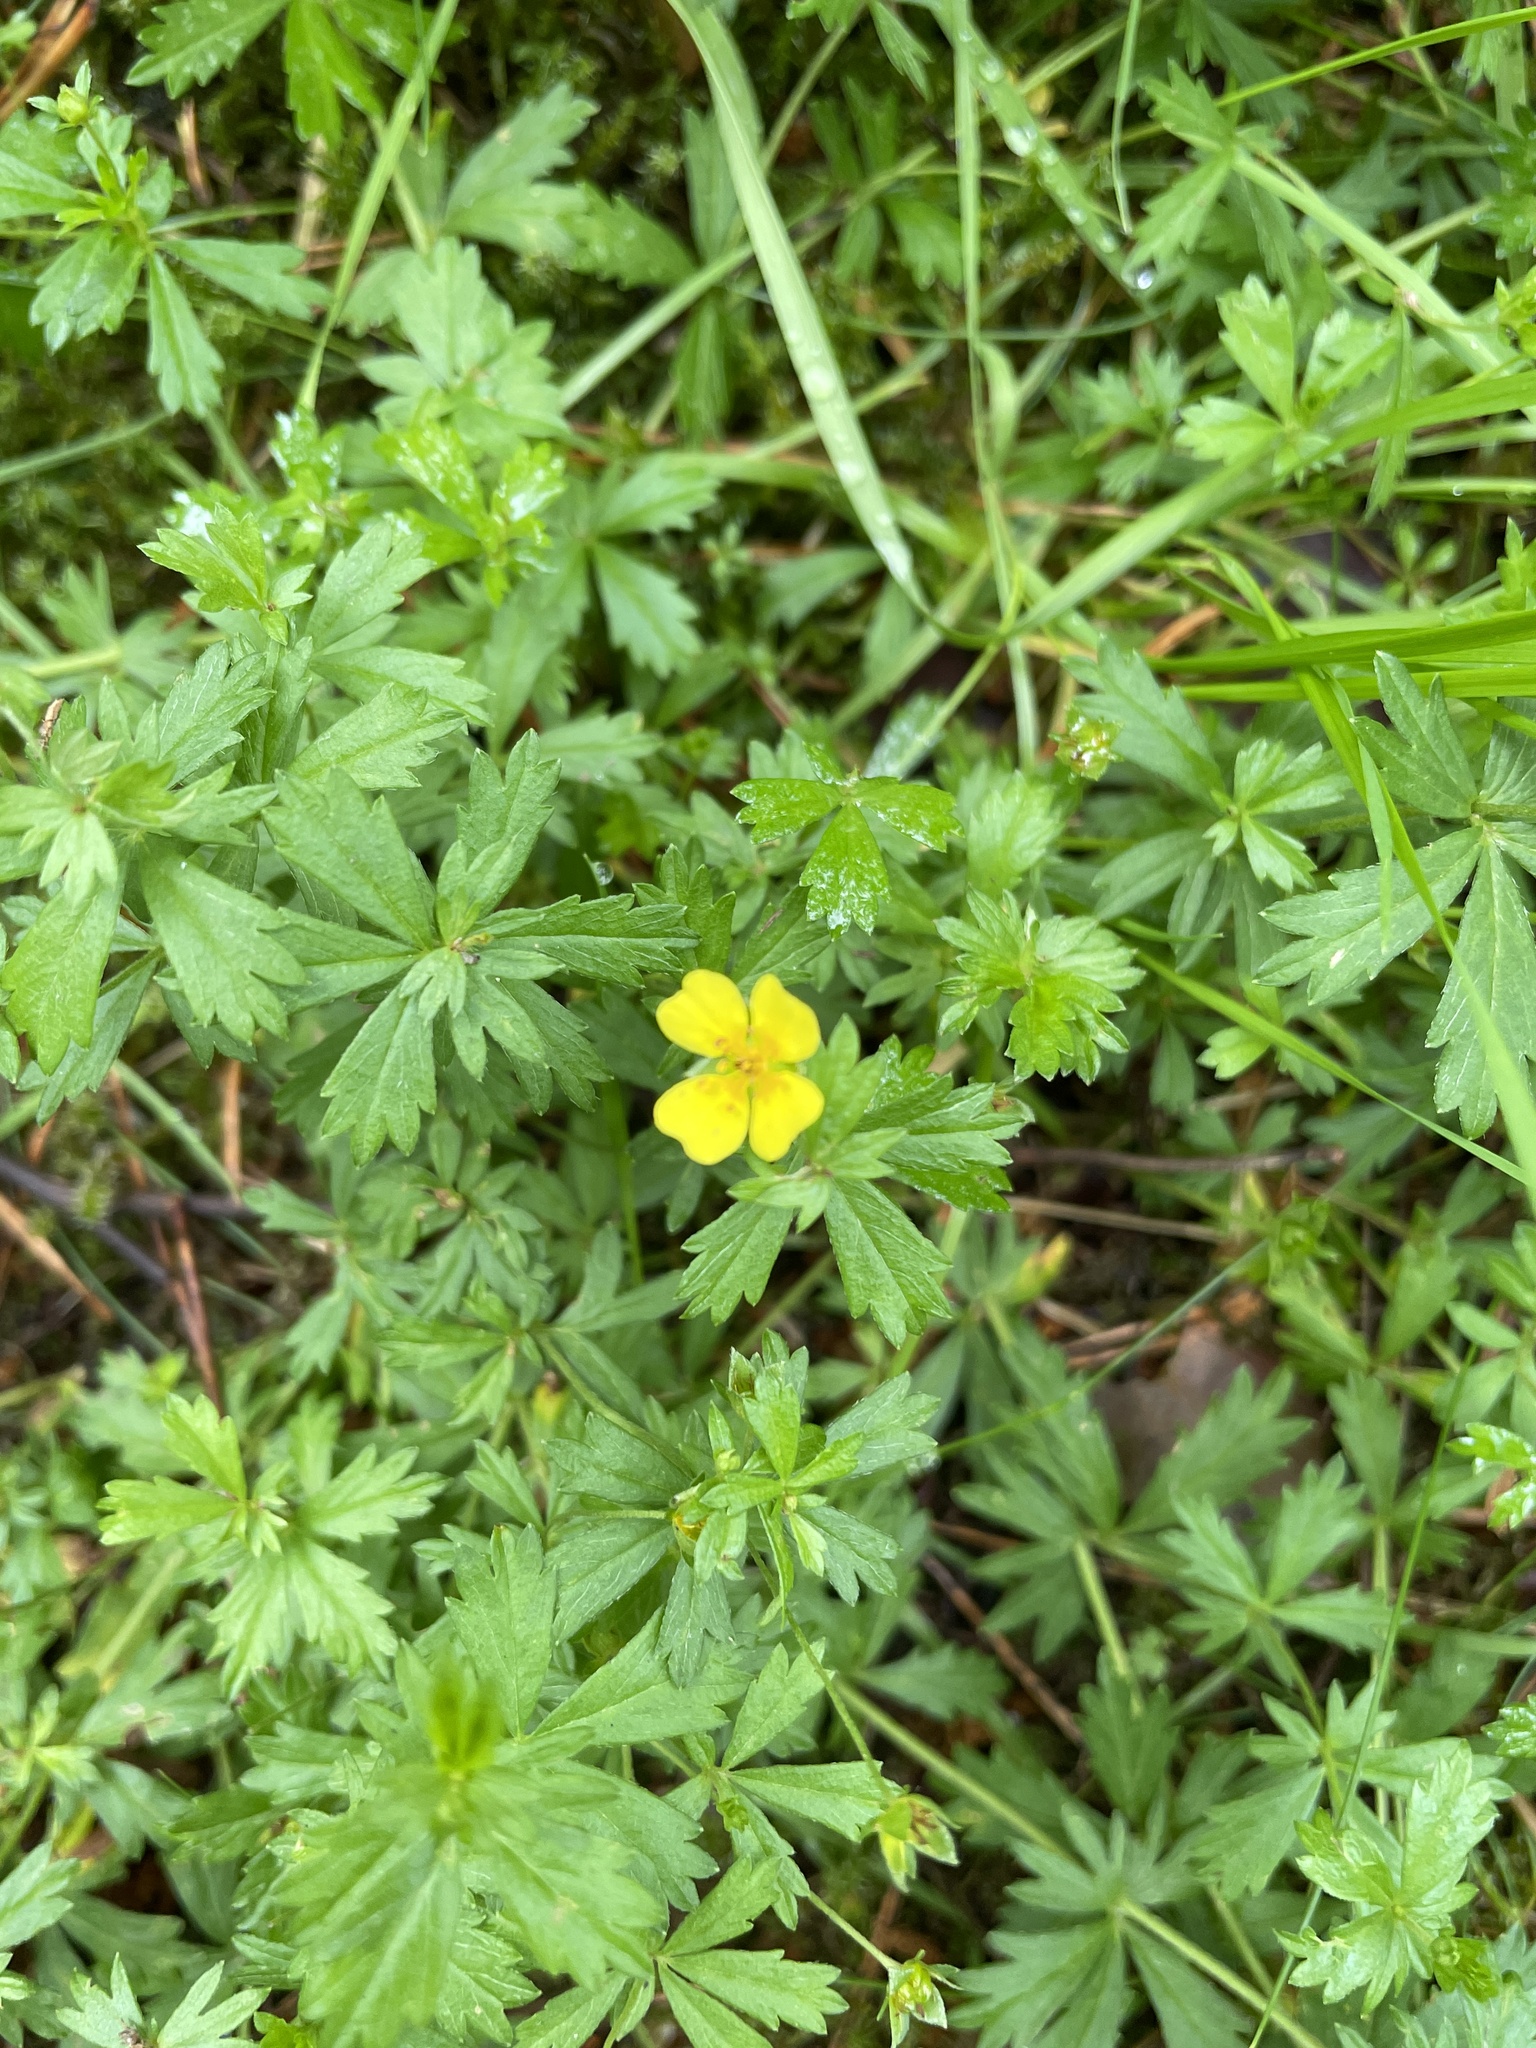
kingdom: Plantae
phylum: Tracheophyta
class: Magnoliopsida
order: Rosales
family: Rosaceae
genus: Potentilla
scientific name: Potentilla erecta
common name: Tormentil
